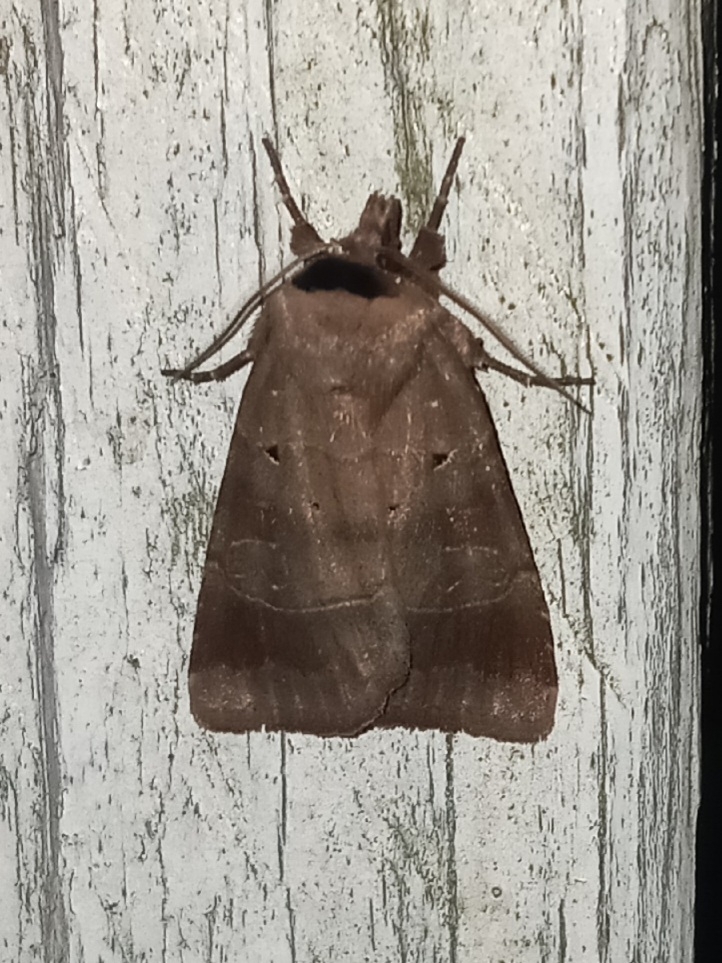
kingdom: Animalia
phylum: Arthropoda
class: Insecta
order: Lepidoptera
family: Noctuidae
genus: Agnorisma
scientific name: Agnorisma badinodis
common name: Pale-banded dart
